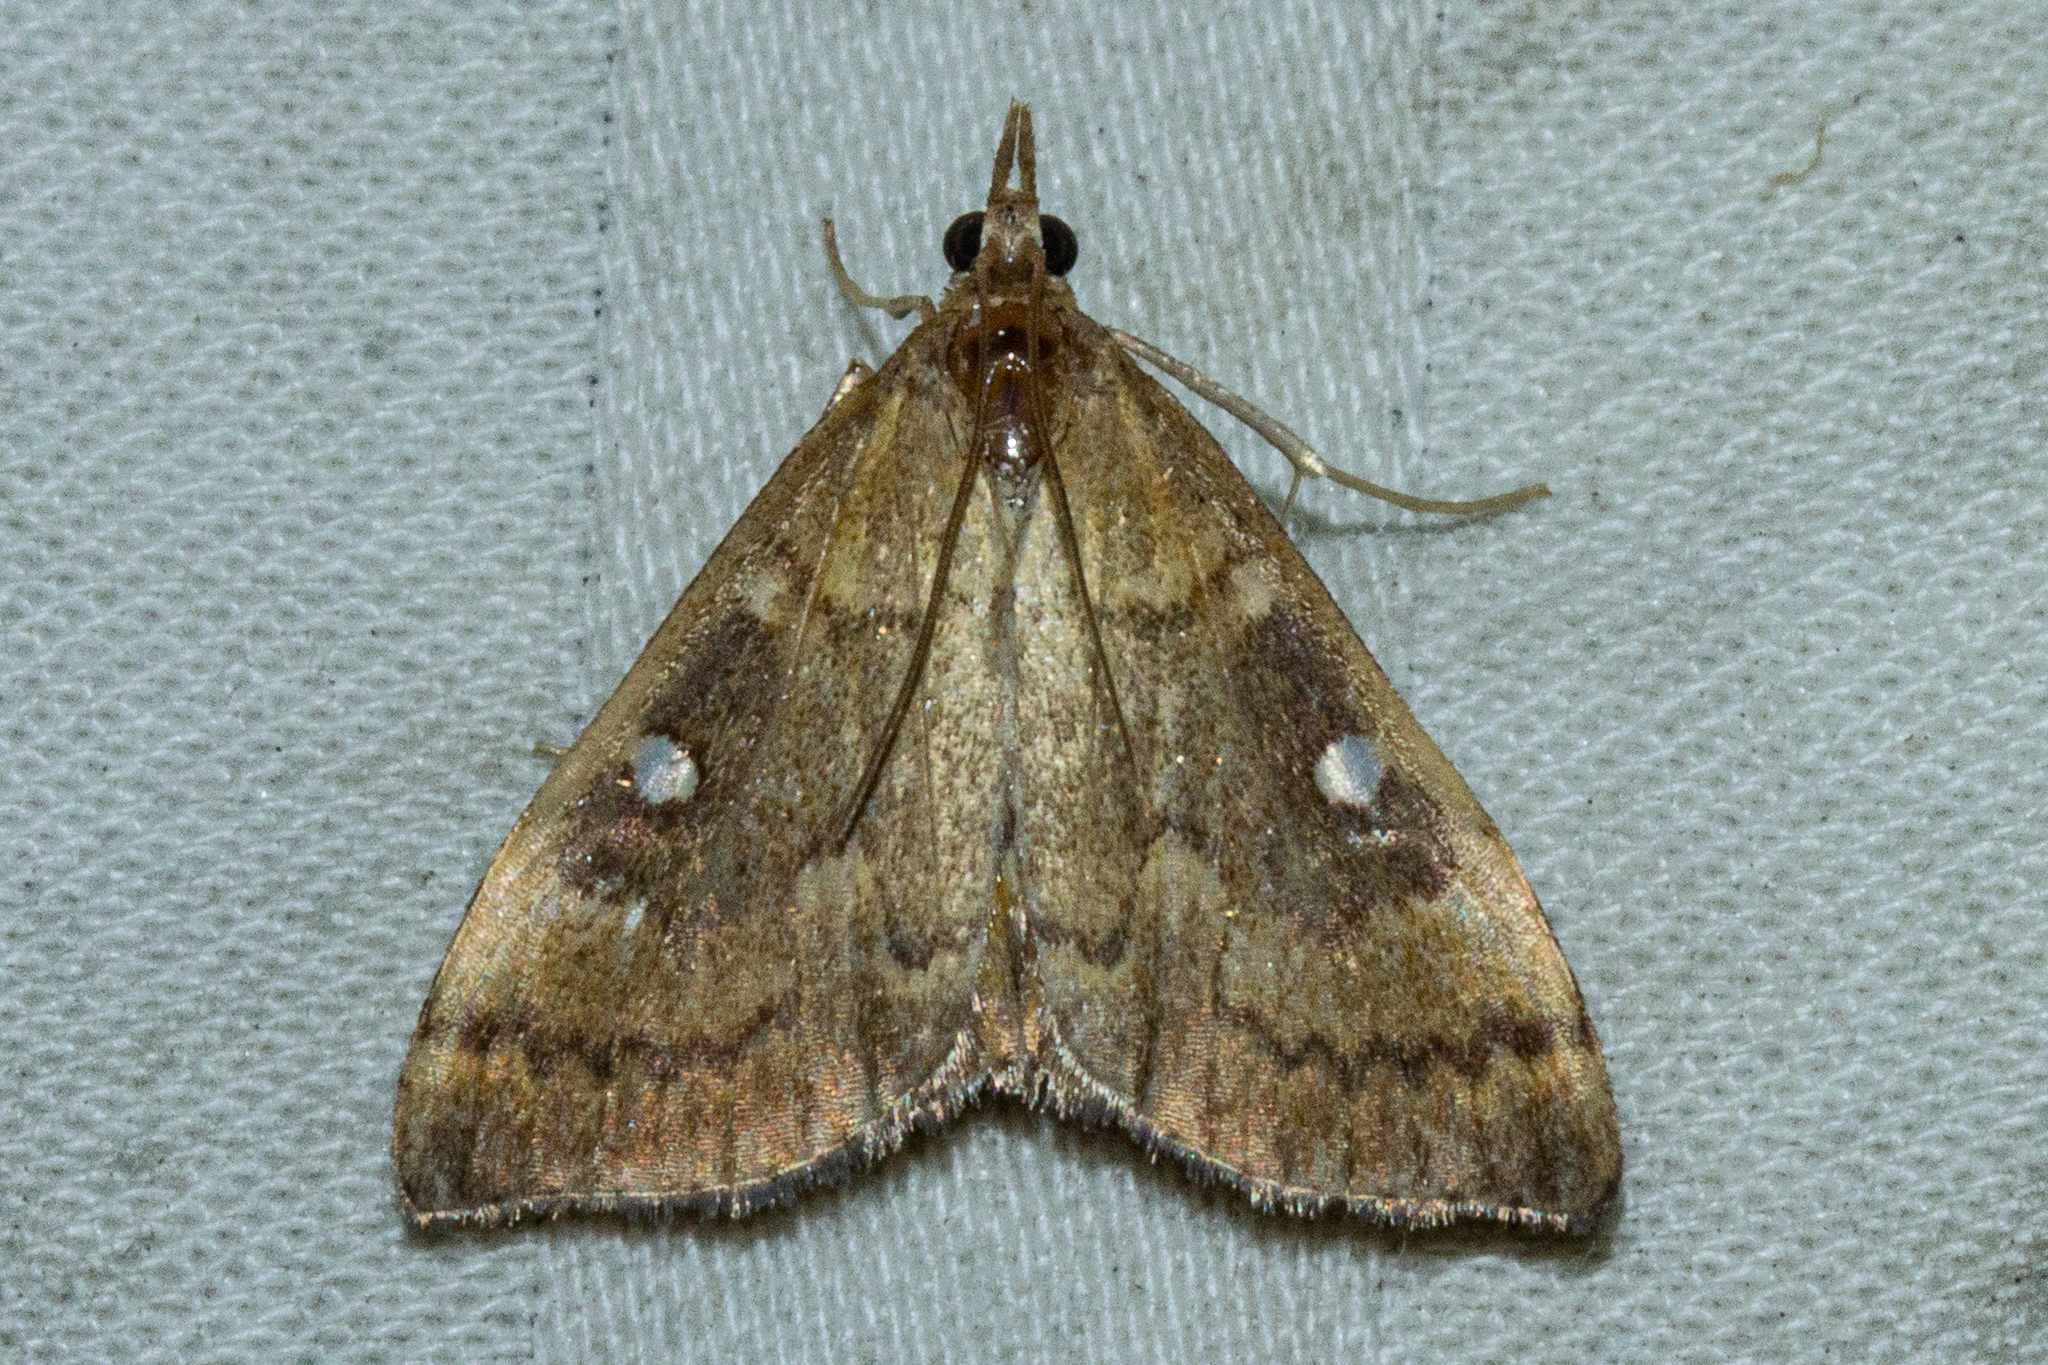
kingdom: Animalia
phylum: Arthropoda
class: Insecta
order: Lepidoptera
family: Crambidae
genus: Udea
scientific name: Udea Mnesictena marmarina
